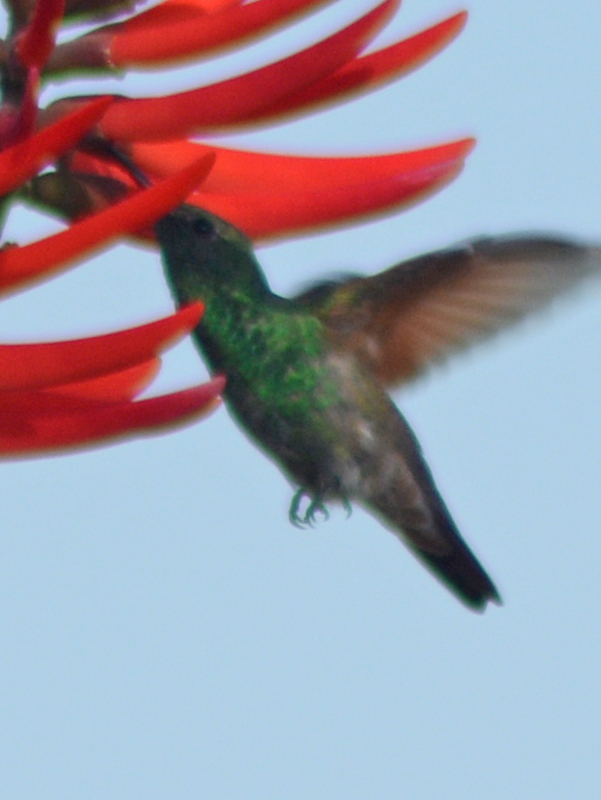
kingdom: Animalia
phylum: Chordata
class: Aves
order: Apodiformes
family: Trochilidae
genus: Saucerottia
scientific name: Saucerottia beryllina
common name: Berylline hummingbird
